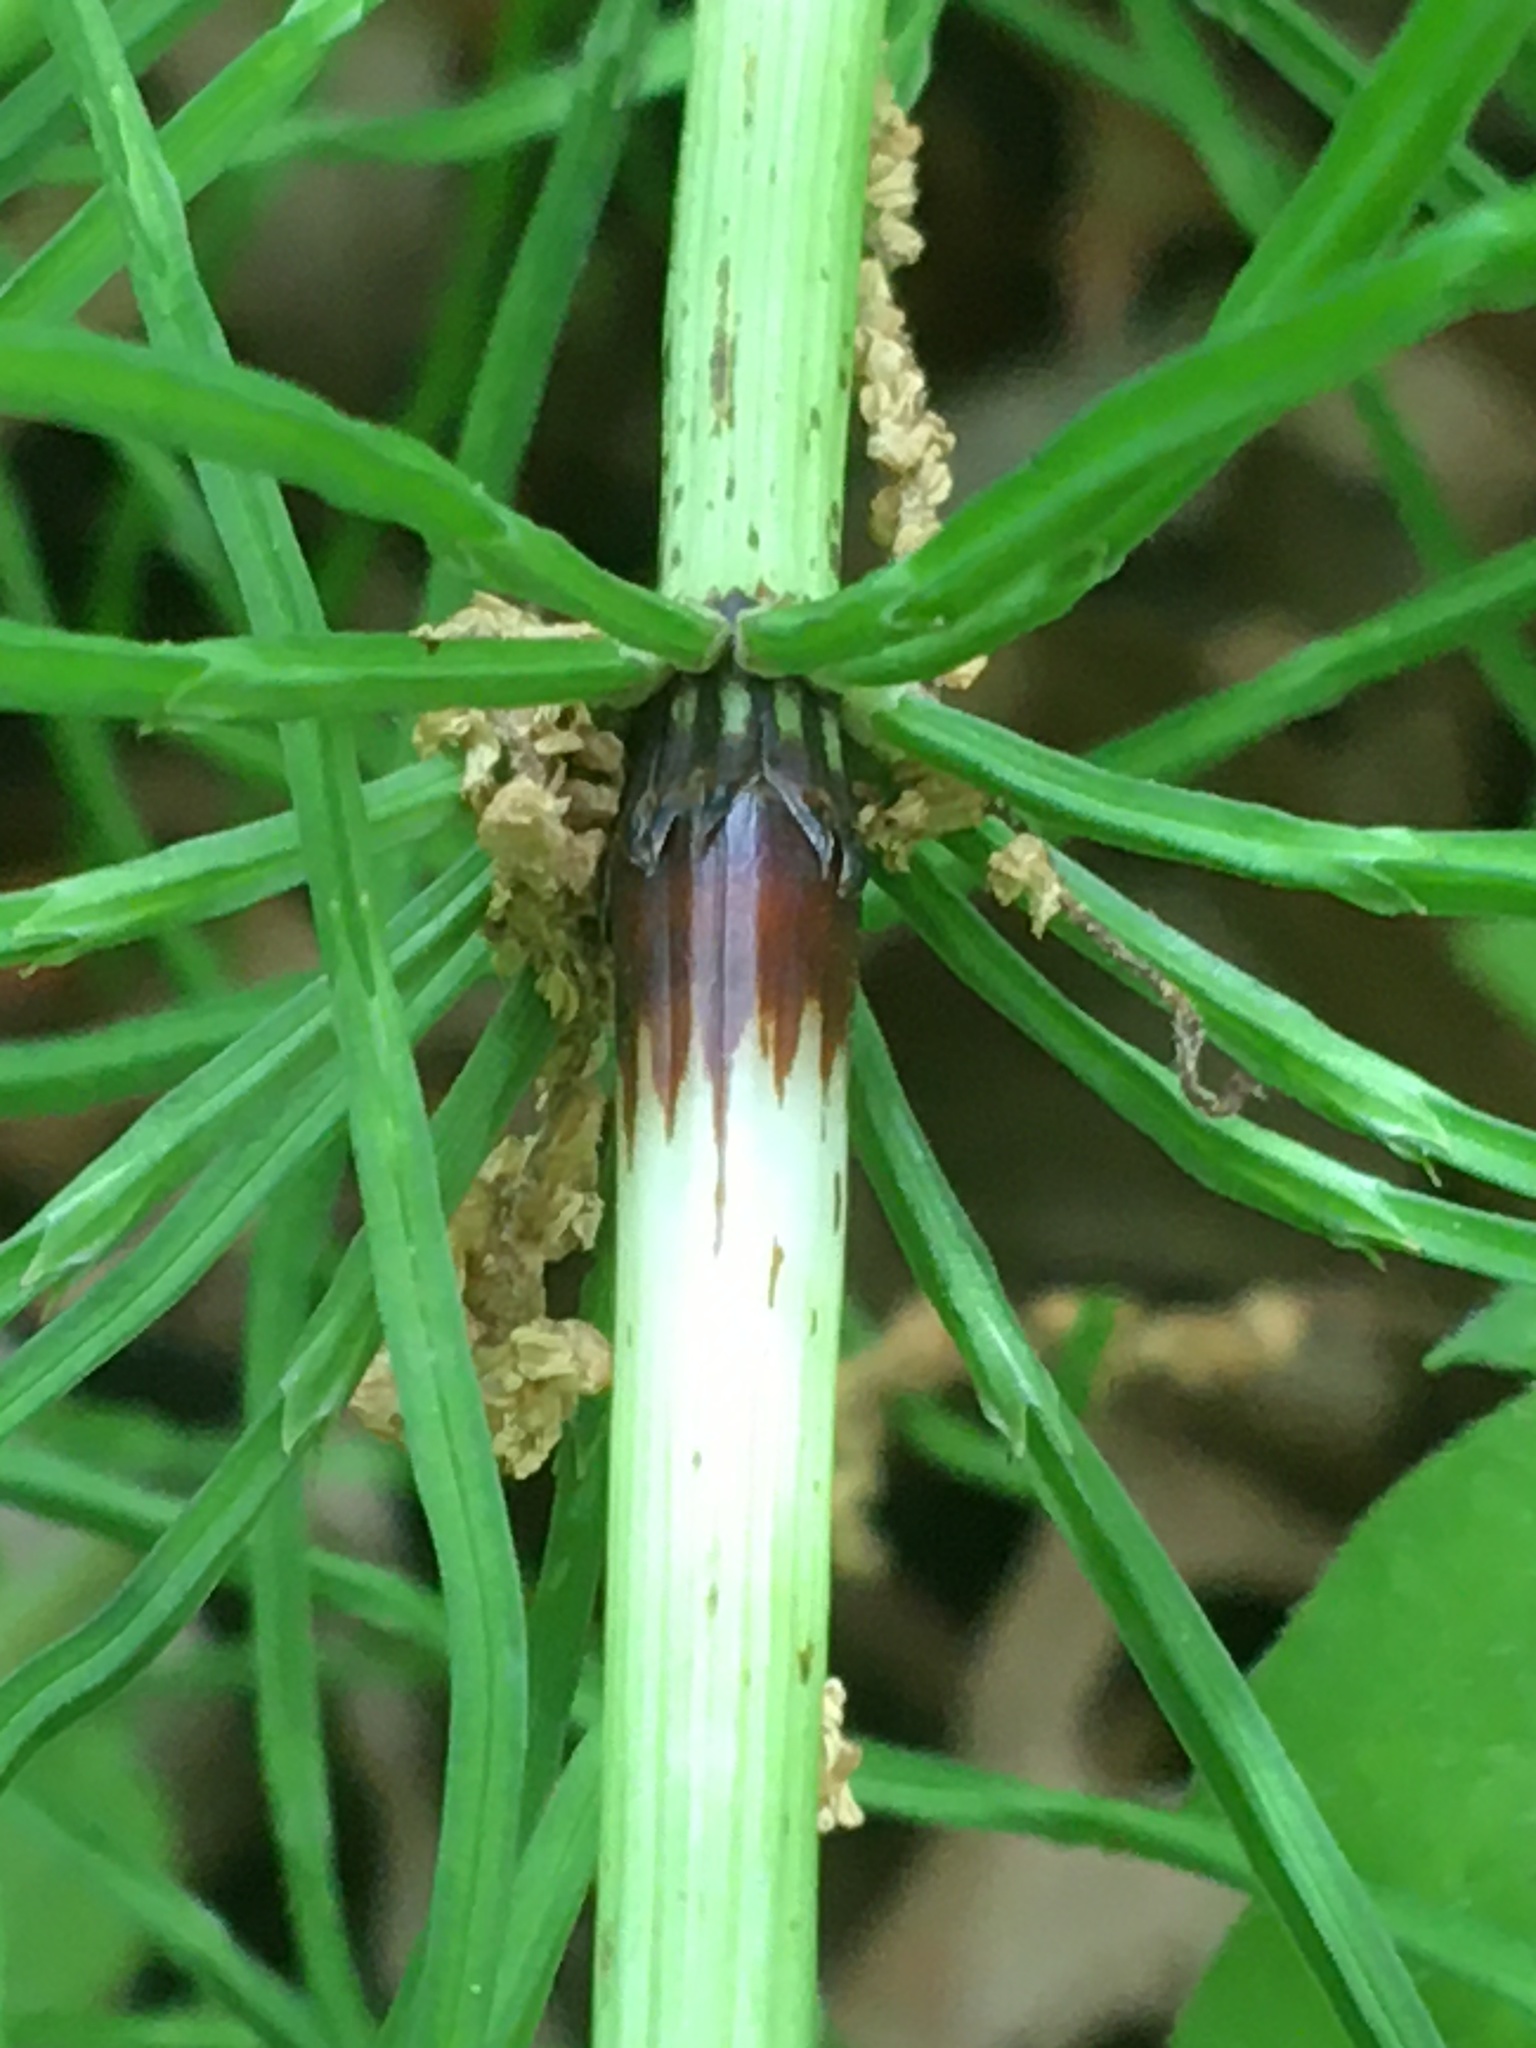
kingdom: Plantae
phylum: Tracheophyta
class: Polypodiopsida
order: Equisetales
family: Equisetaceae
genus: Equisetum
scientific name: Equisetum arvense
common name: Field horsetail
